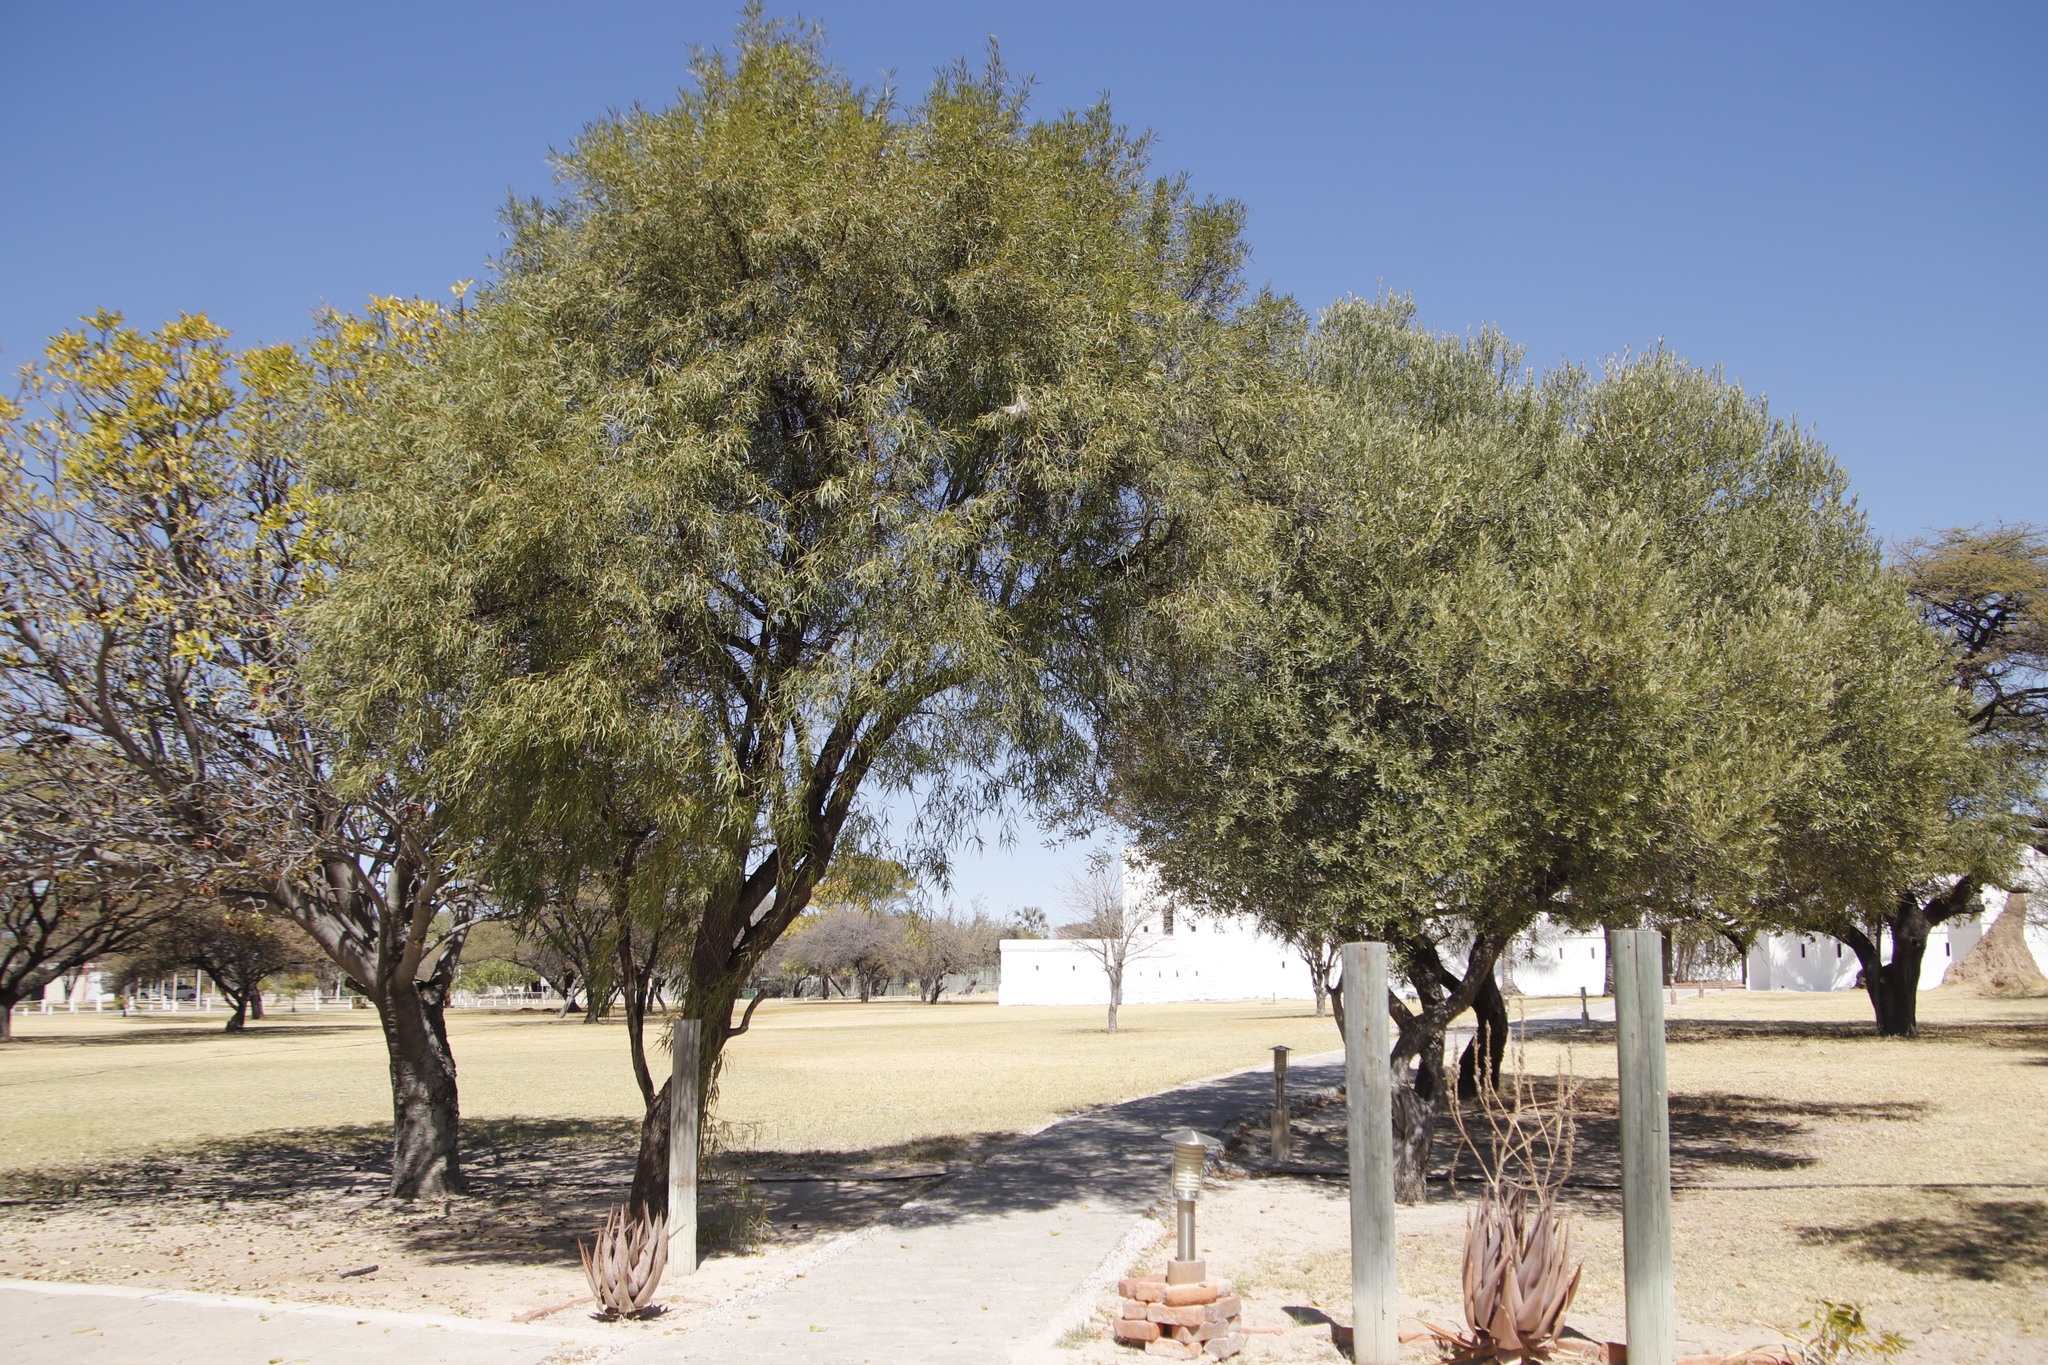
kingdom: Plantae
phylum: Tracheophyta
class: Magnoliopsida
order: Lamiales
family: Oleaceae
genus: Olea
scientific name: Olea europaea
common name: Olive
